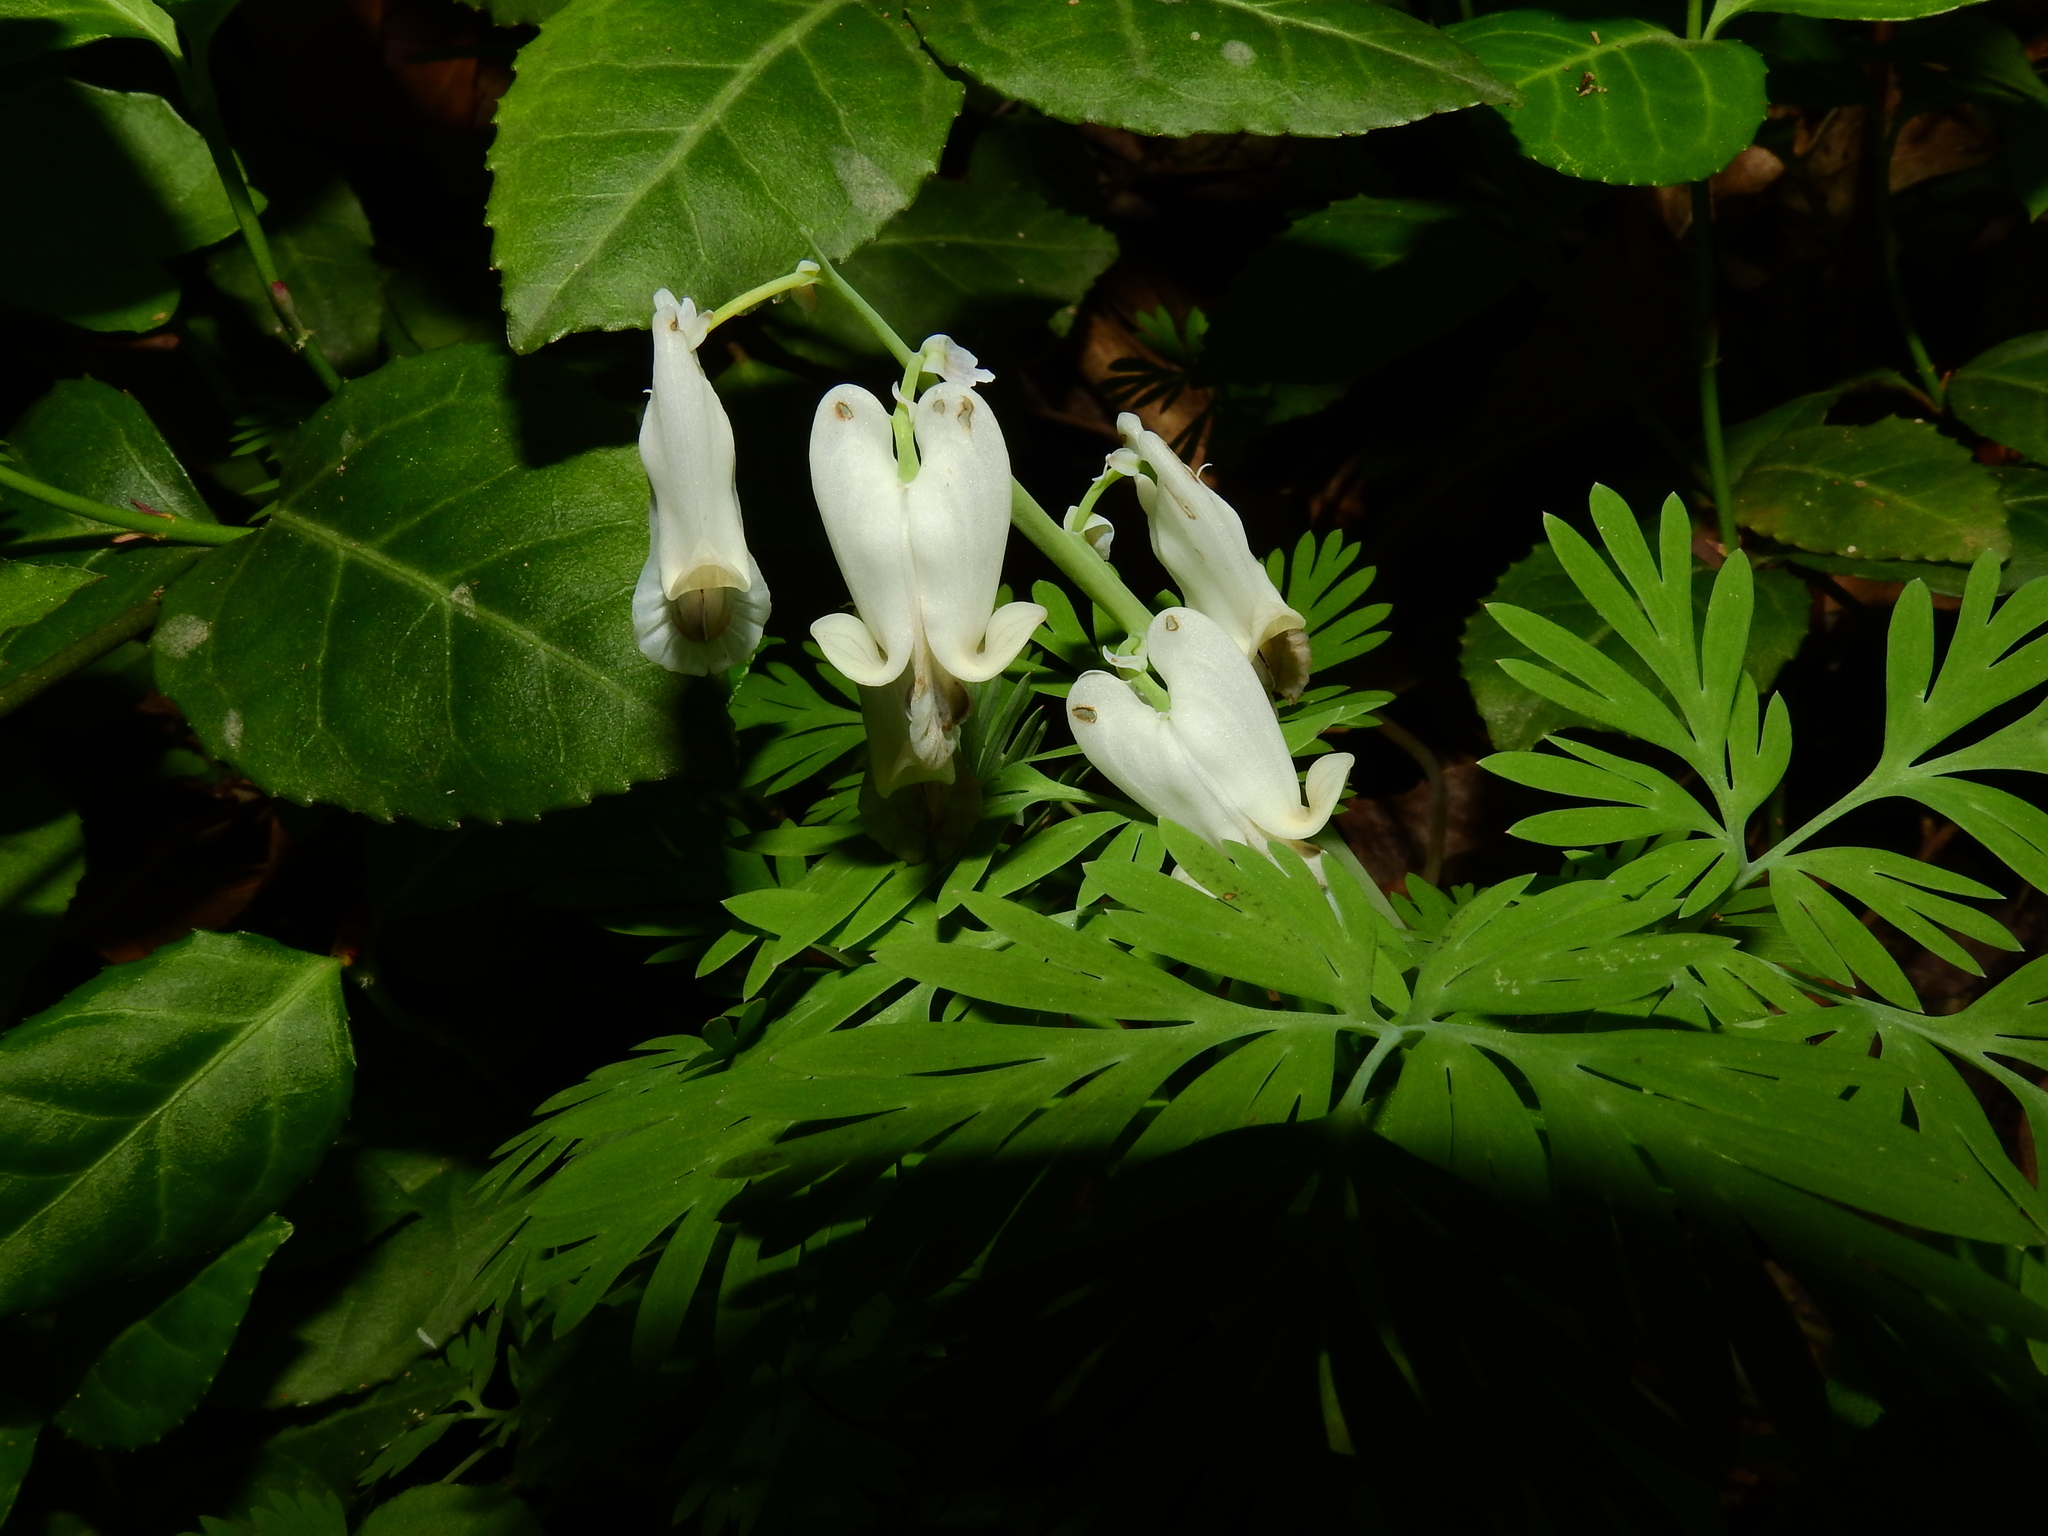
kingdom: Plantae
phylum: Tracheophyta
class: Magnoliopsida
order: Ranunculales
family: Papaveraceae
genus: Dicentra
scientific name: Dicentra canadensis
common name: Squirrel-corn
